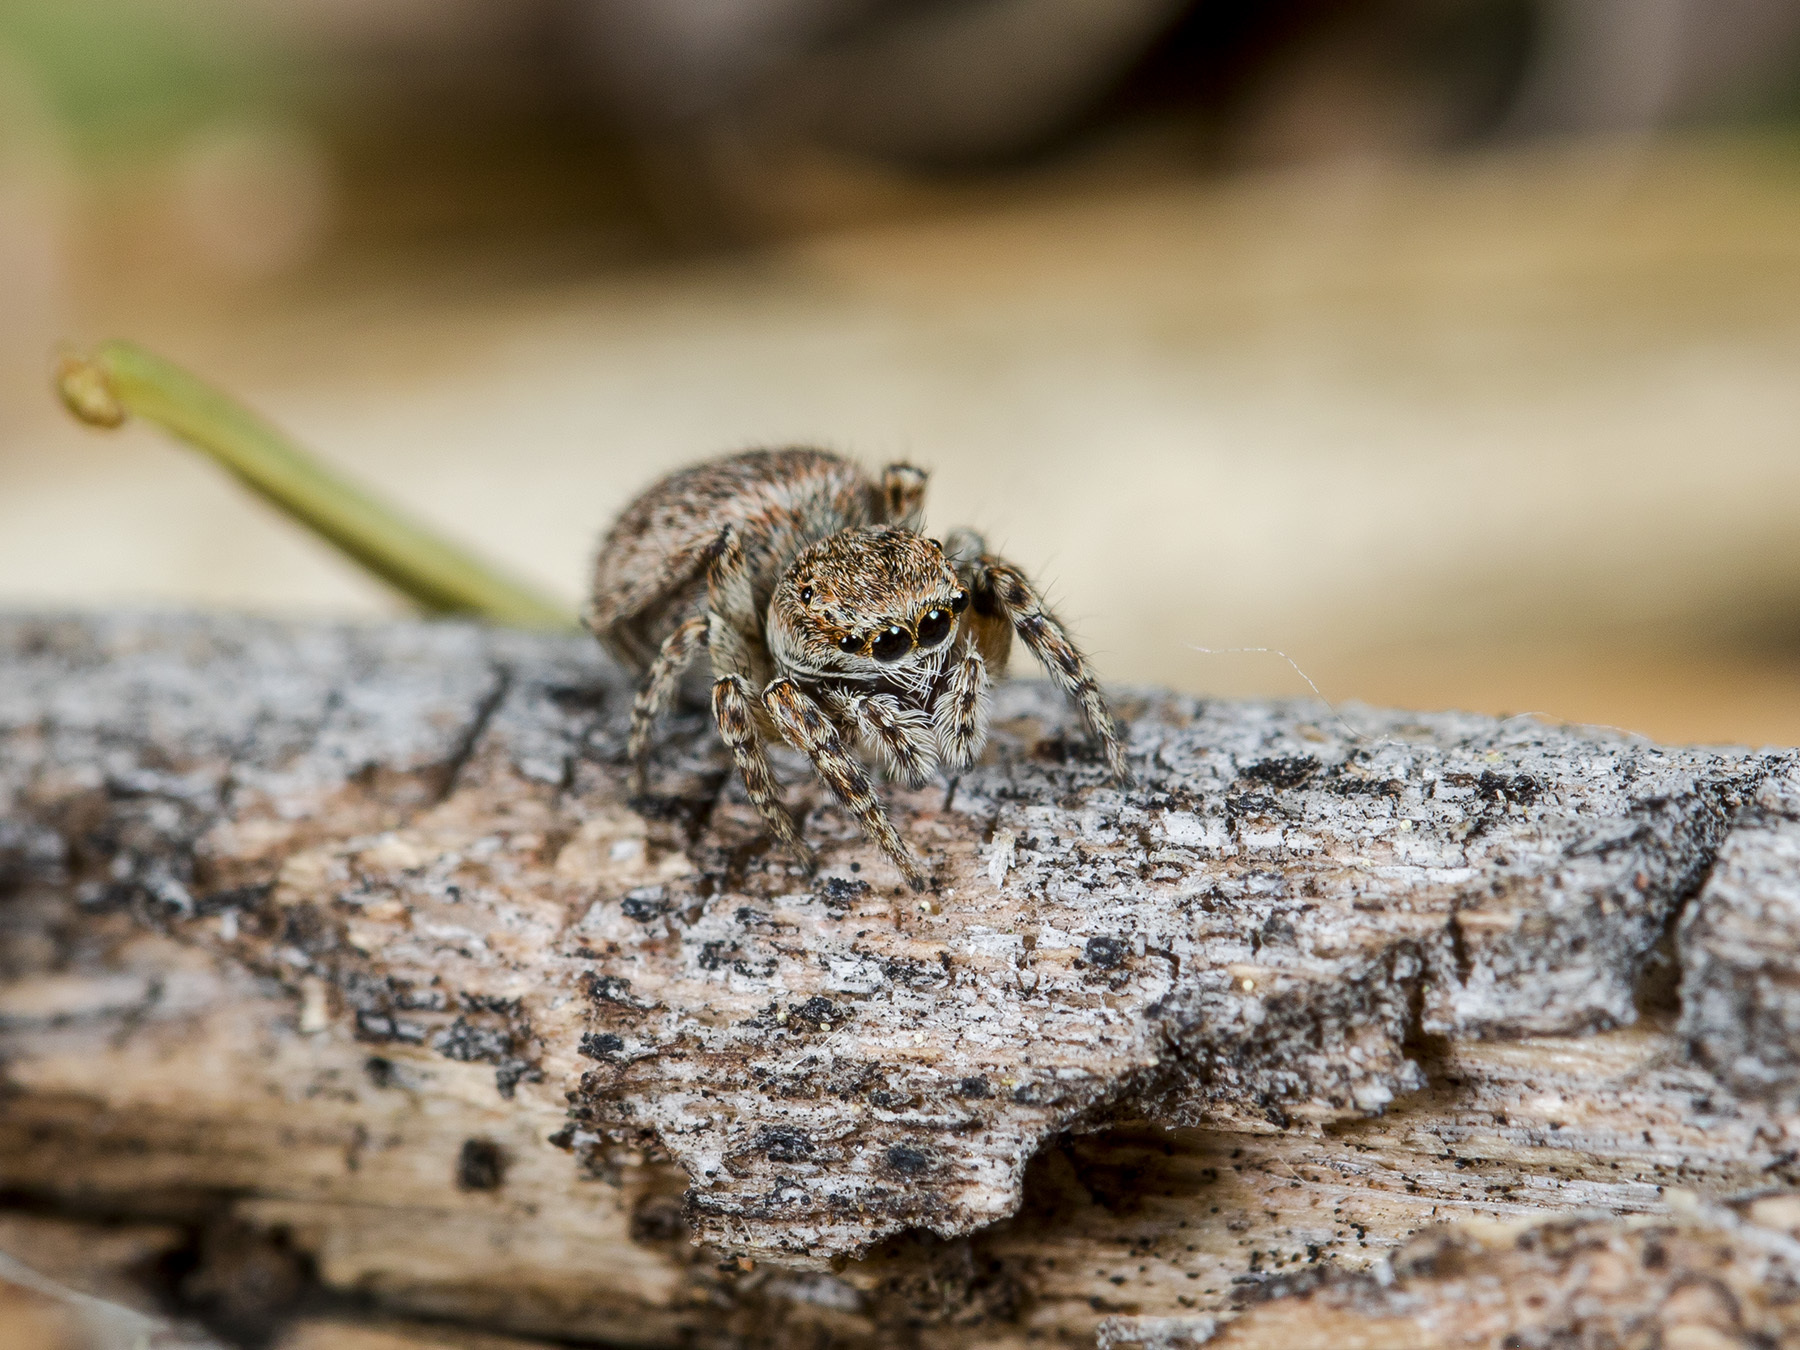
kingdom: Animalia
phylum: Arthropoda
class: Arachnida
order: Araneae
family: Salticidae
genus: Attulus
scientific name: Attulus mirandus
